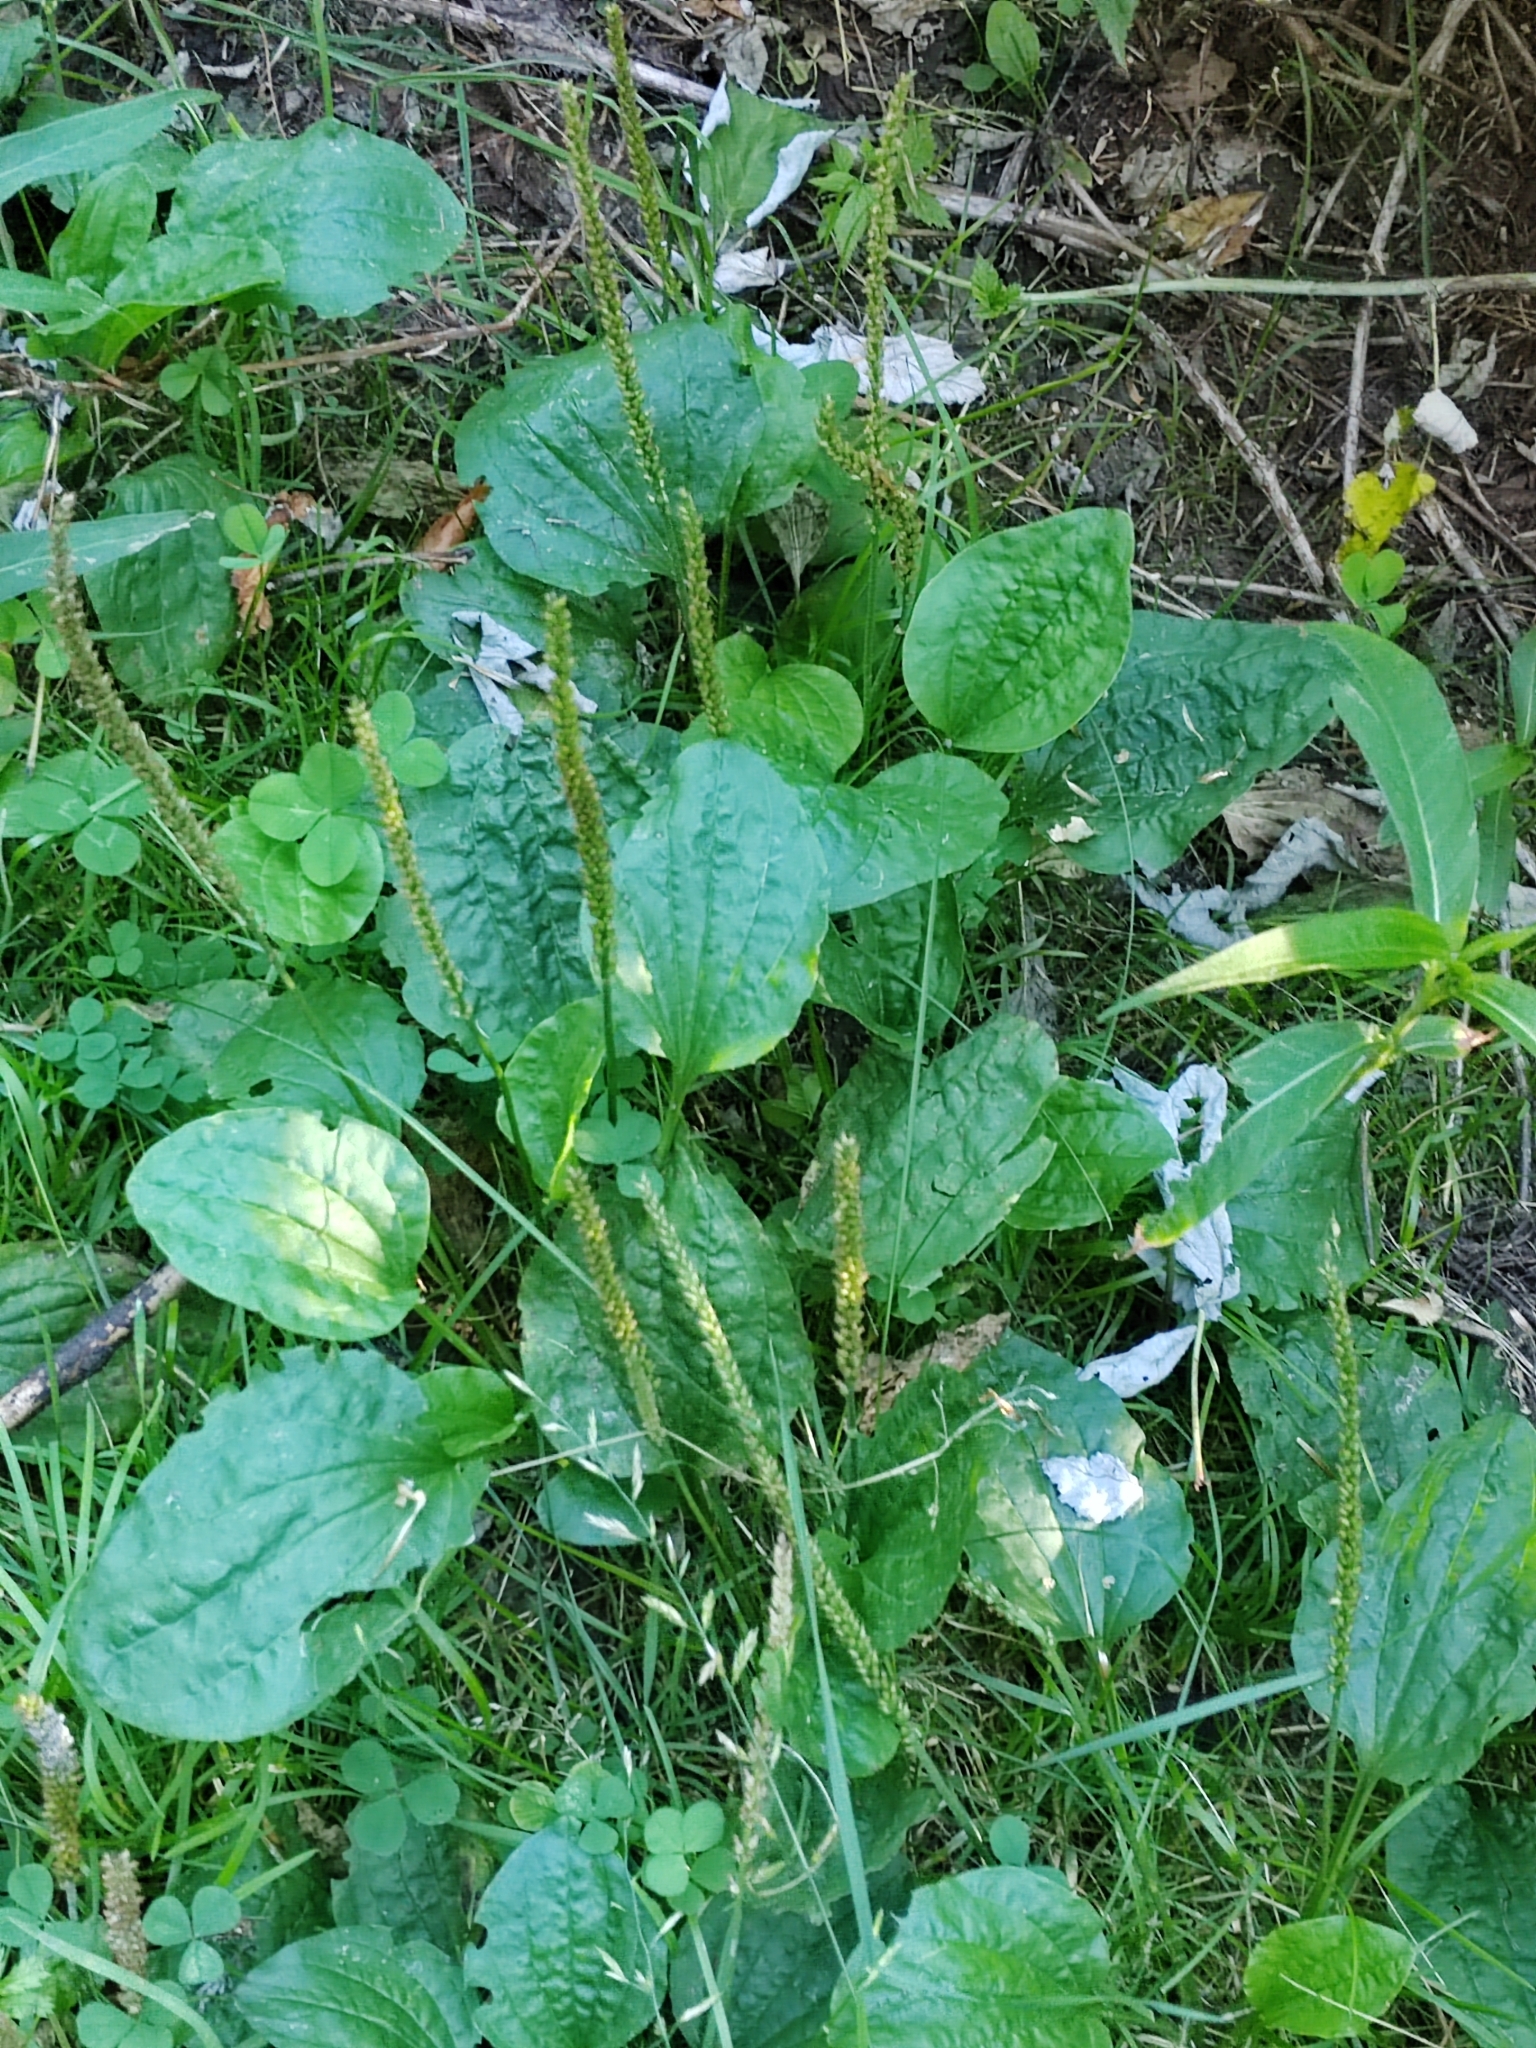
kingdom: Plantae
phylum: Tracheophyta
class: Magnoliopsida
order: Lamiales
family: Plantaginaceae
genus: Plantago
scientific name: Plantago major
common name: Common plantain
